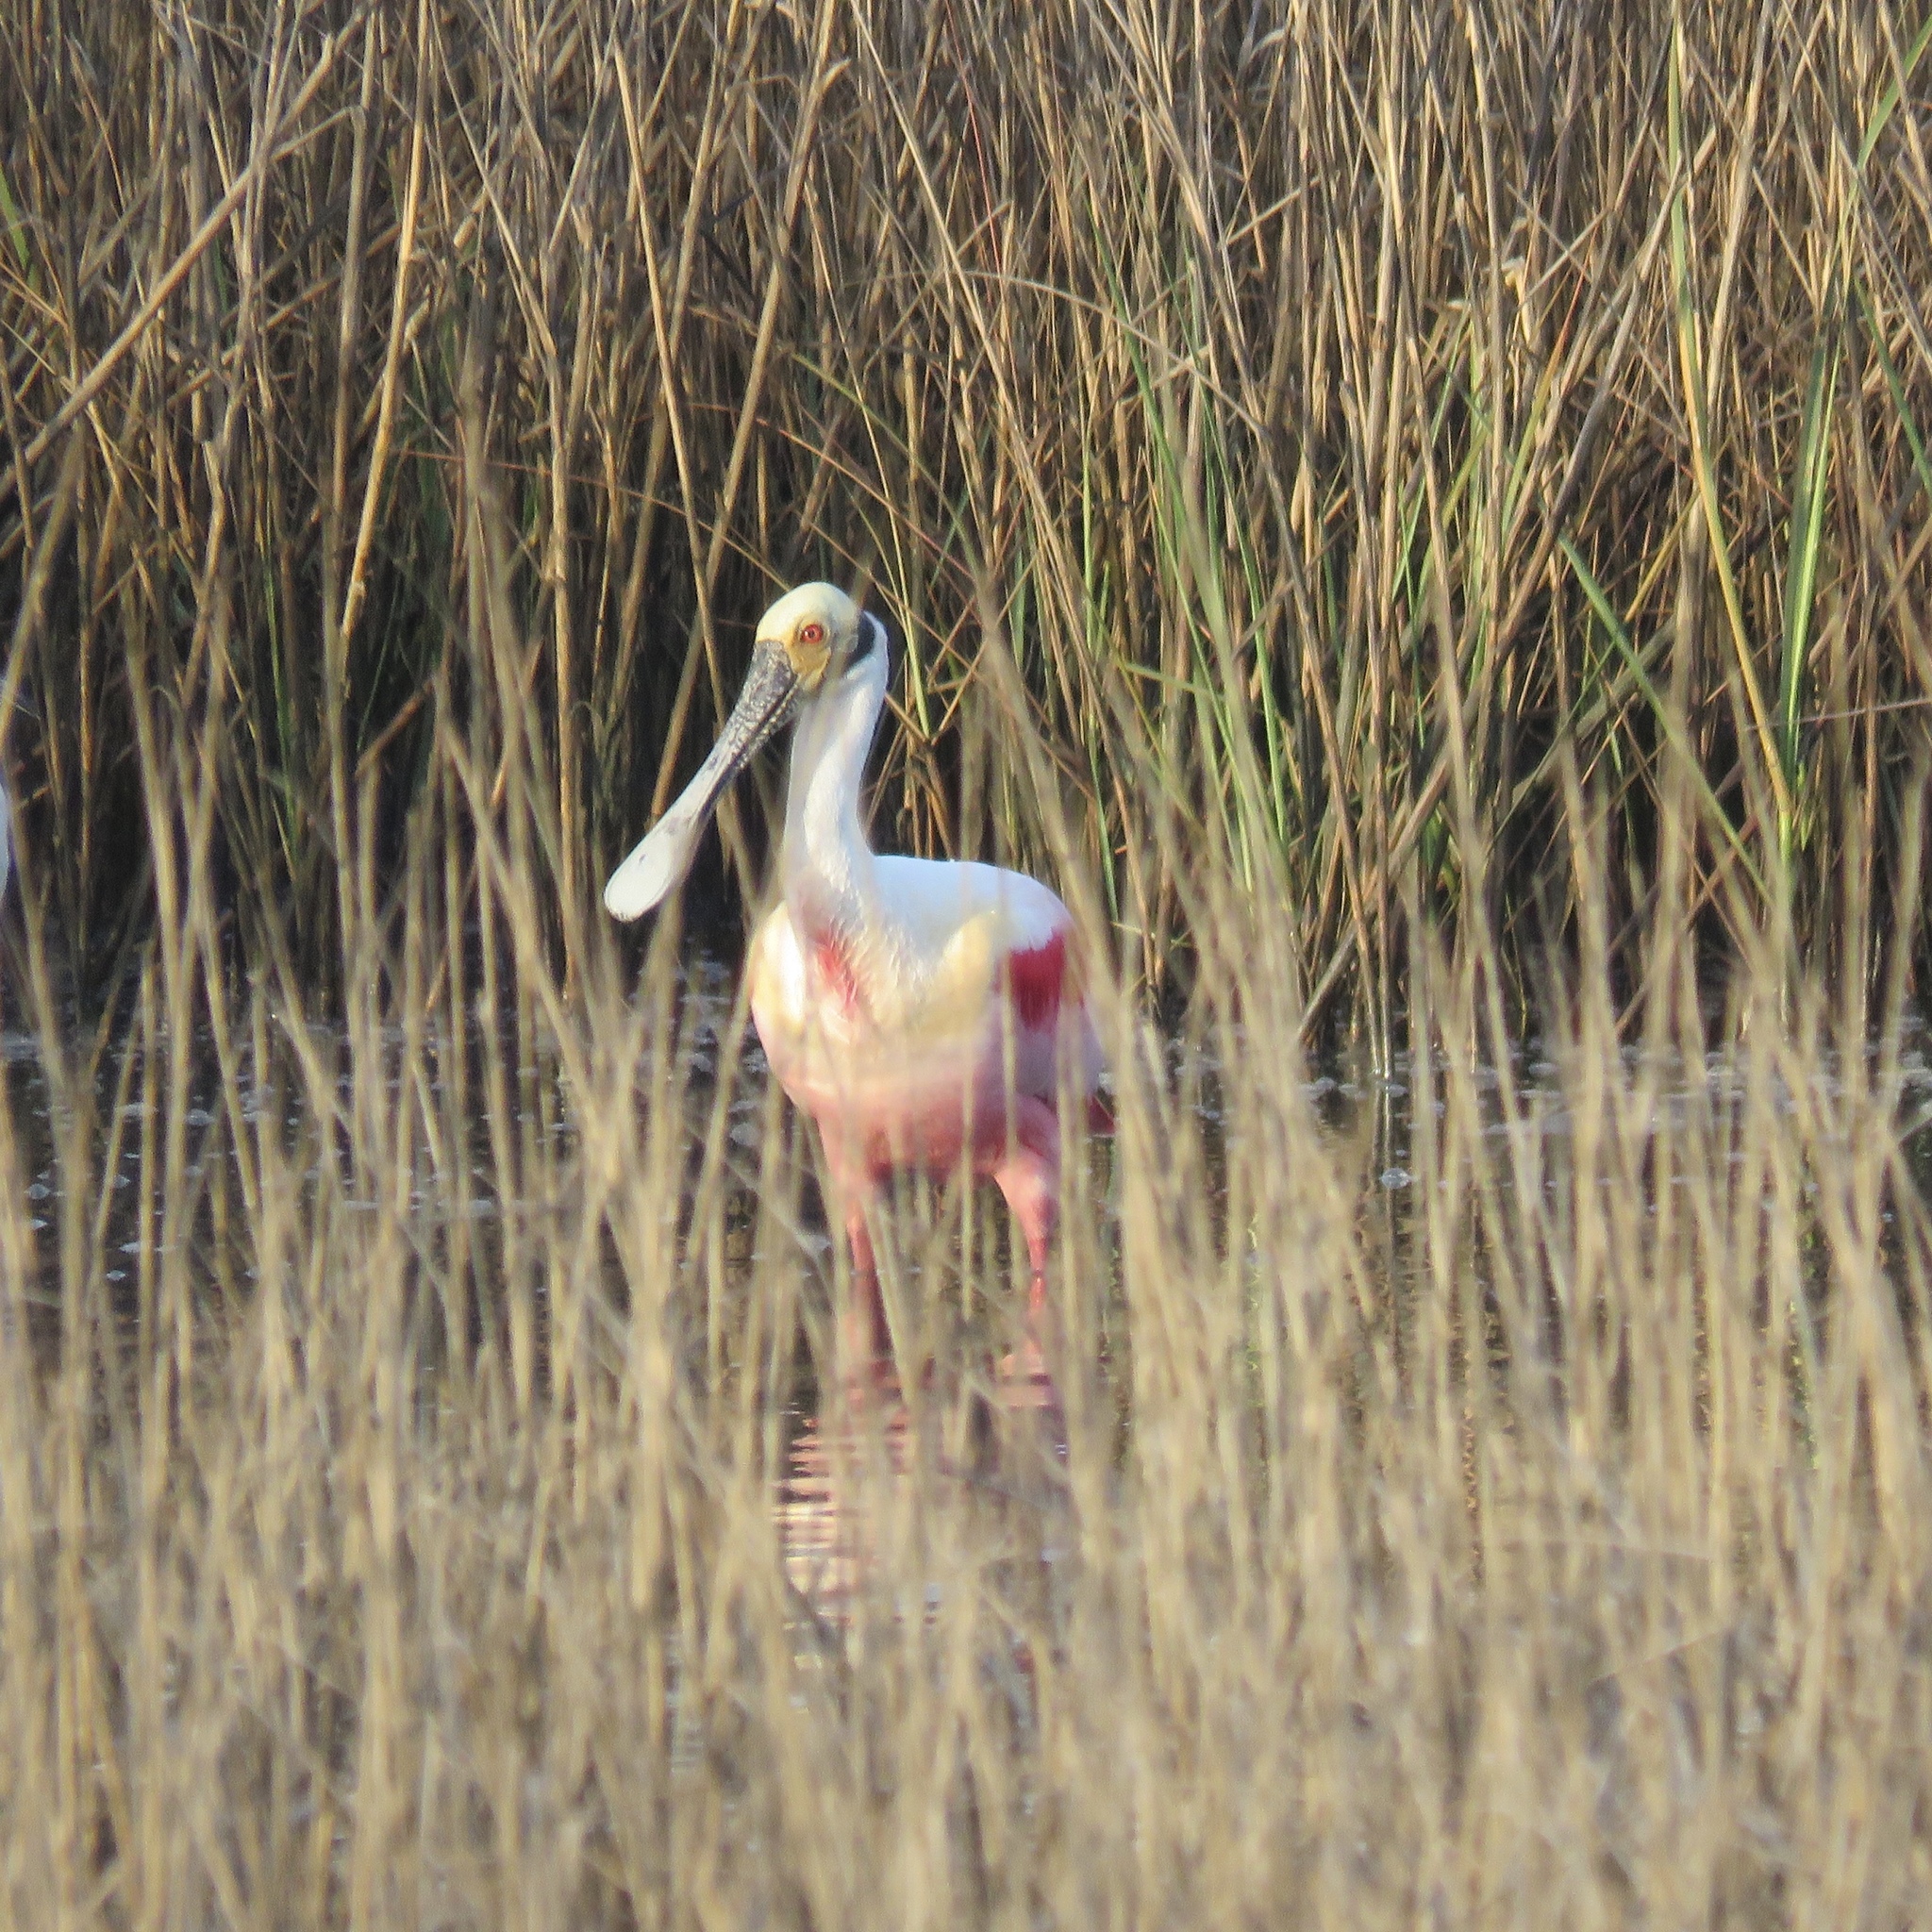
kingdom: Animalia
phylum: Chordata
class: Aves
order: Pelecaniformes
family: Threskiornithidae
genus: Platalea
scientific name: Platalea ajaja
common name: Roseate spoonbill
